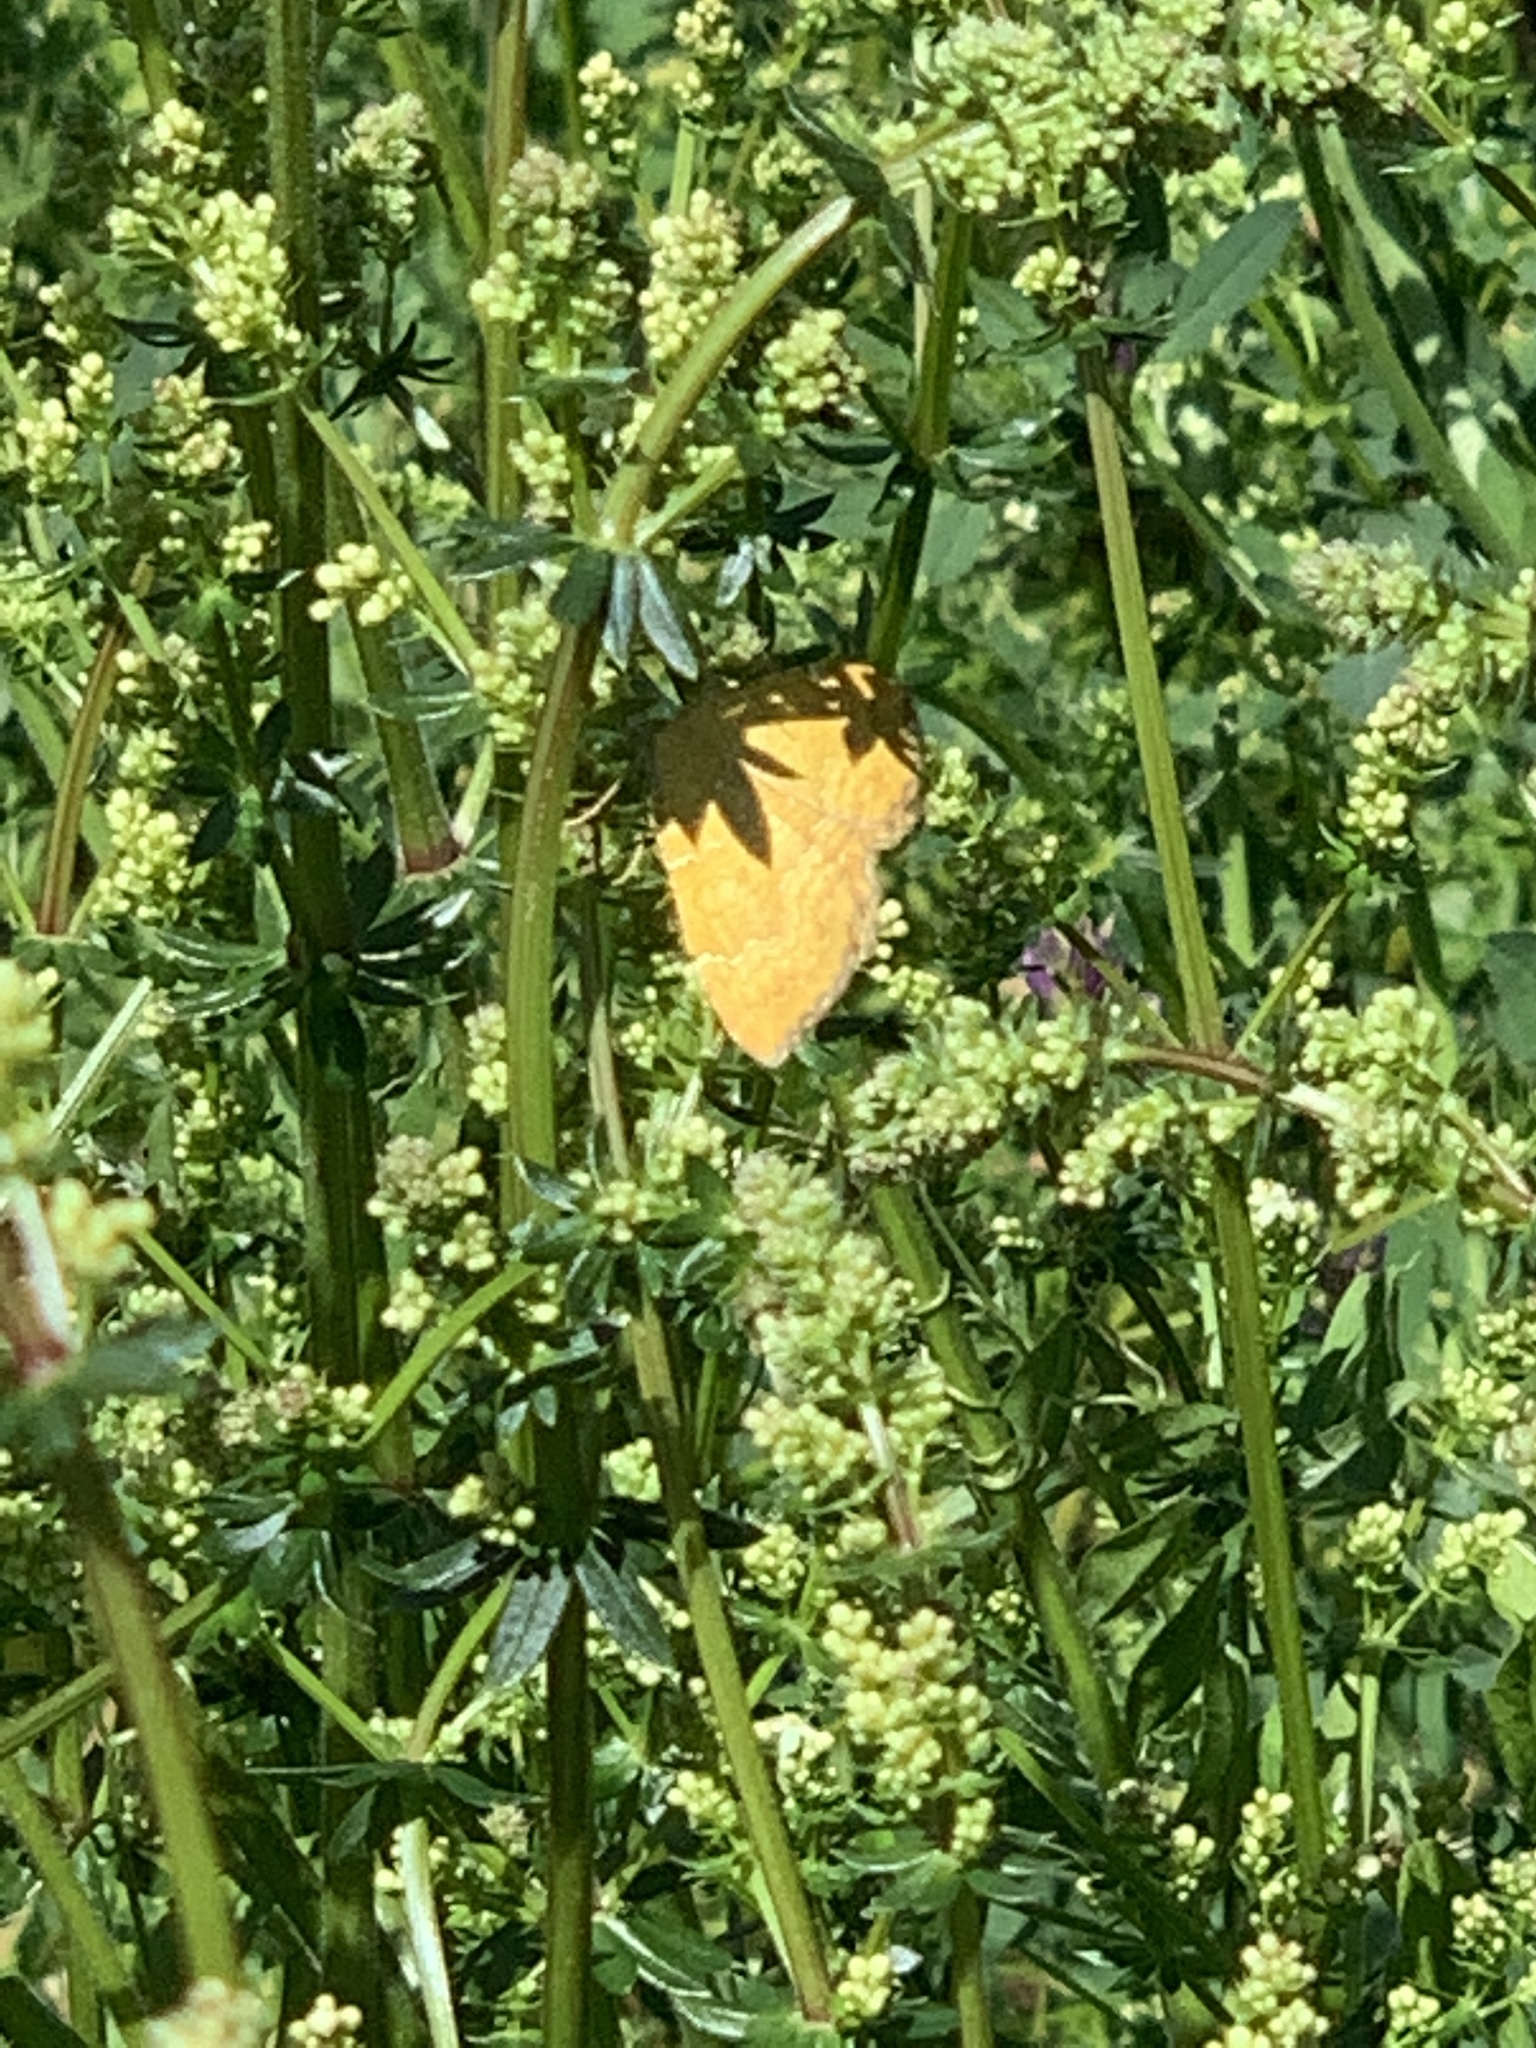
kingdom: Animalia
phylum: Arthropoda
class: Insecta
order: Lepidoptera
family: Geometridae
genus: Camptogramma
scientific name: Camptogramma bilineata
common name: Yellow shell
